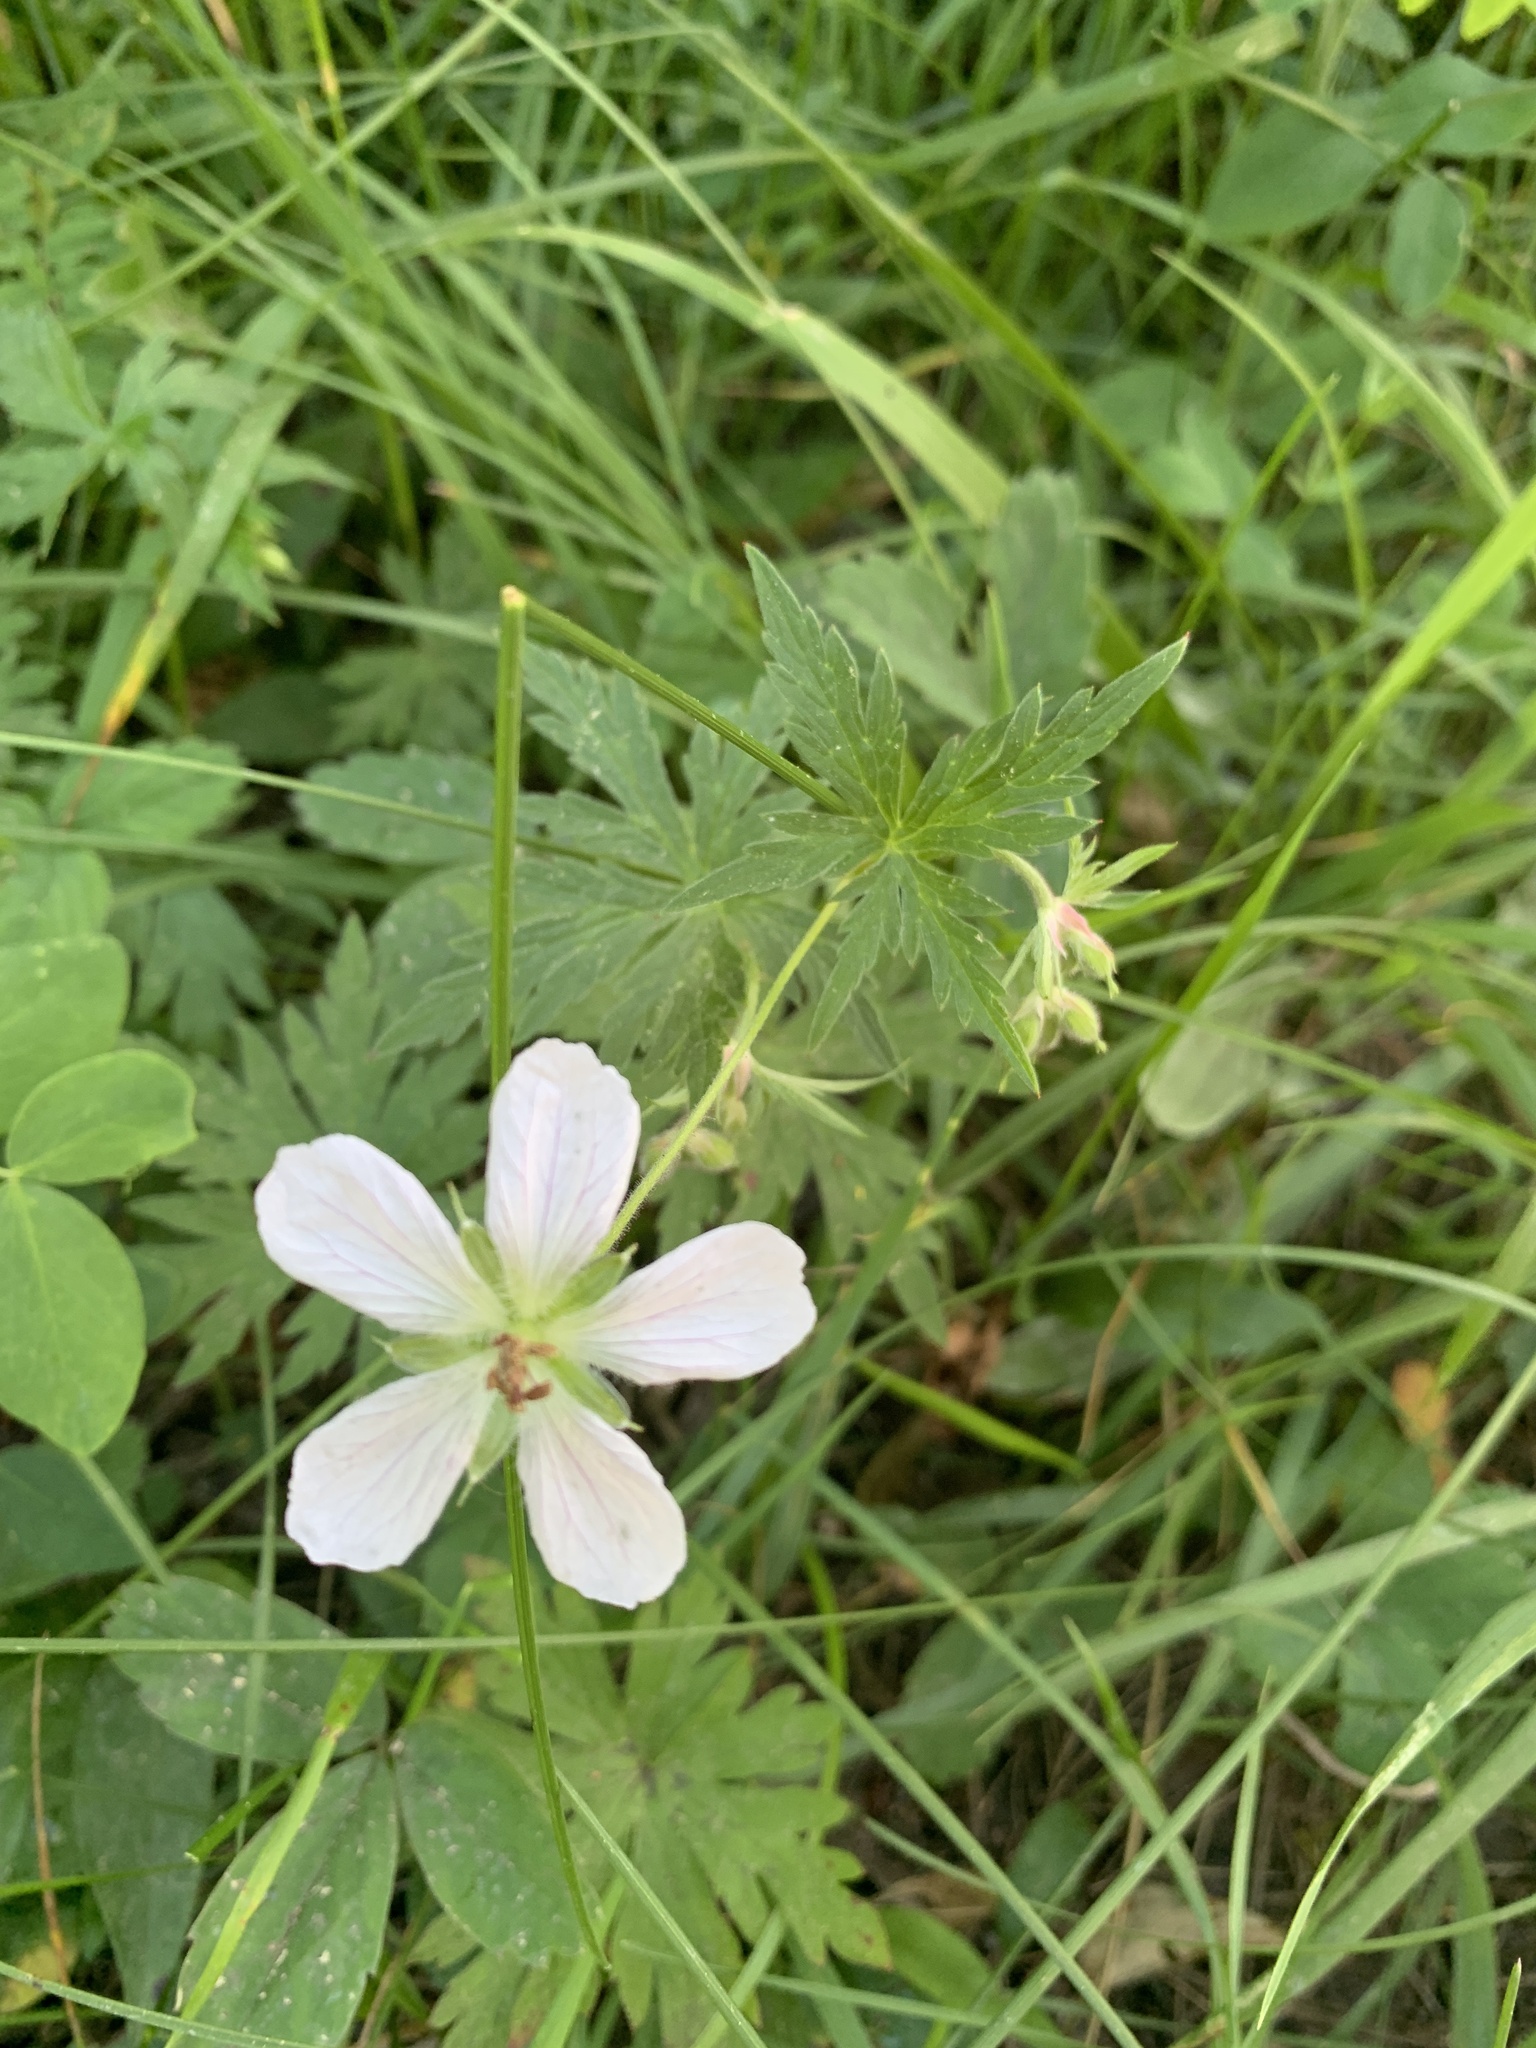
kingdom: Plantae
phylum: Tracheophyta
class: Magnoliopsida
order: Geraniales
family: Geraniaceae
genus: Geranium
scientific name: Geranium richardsonii
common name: Richardson's crane's-bill
